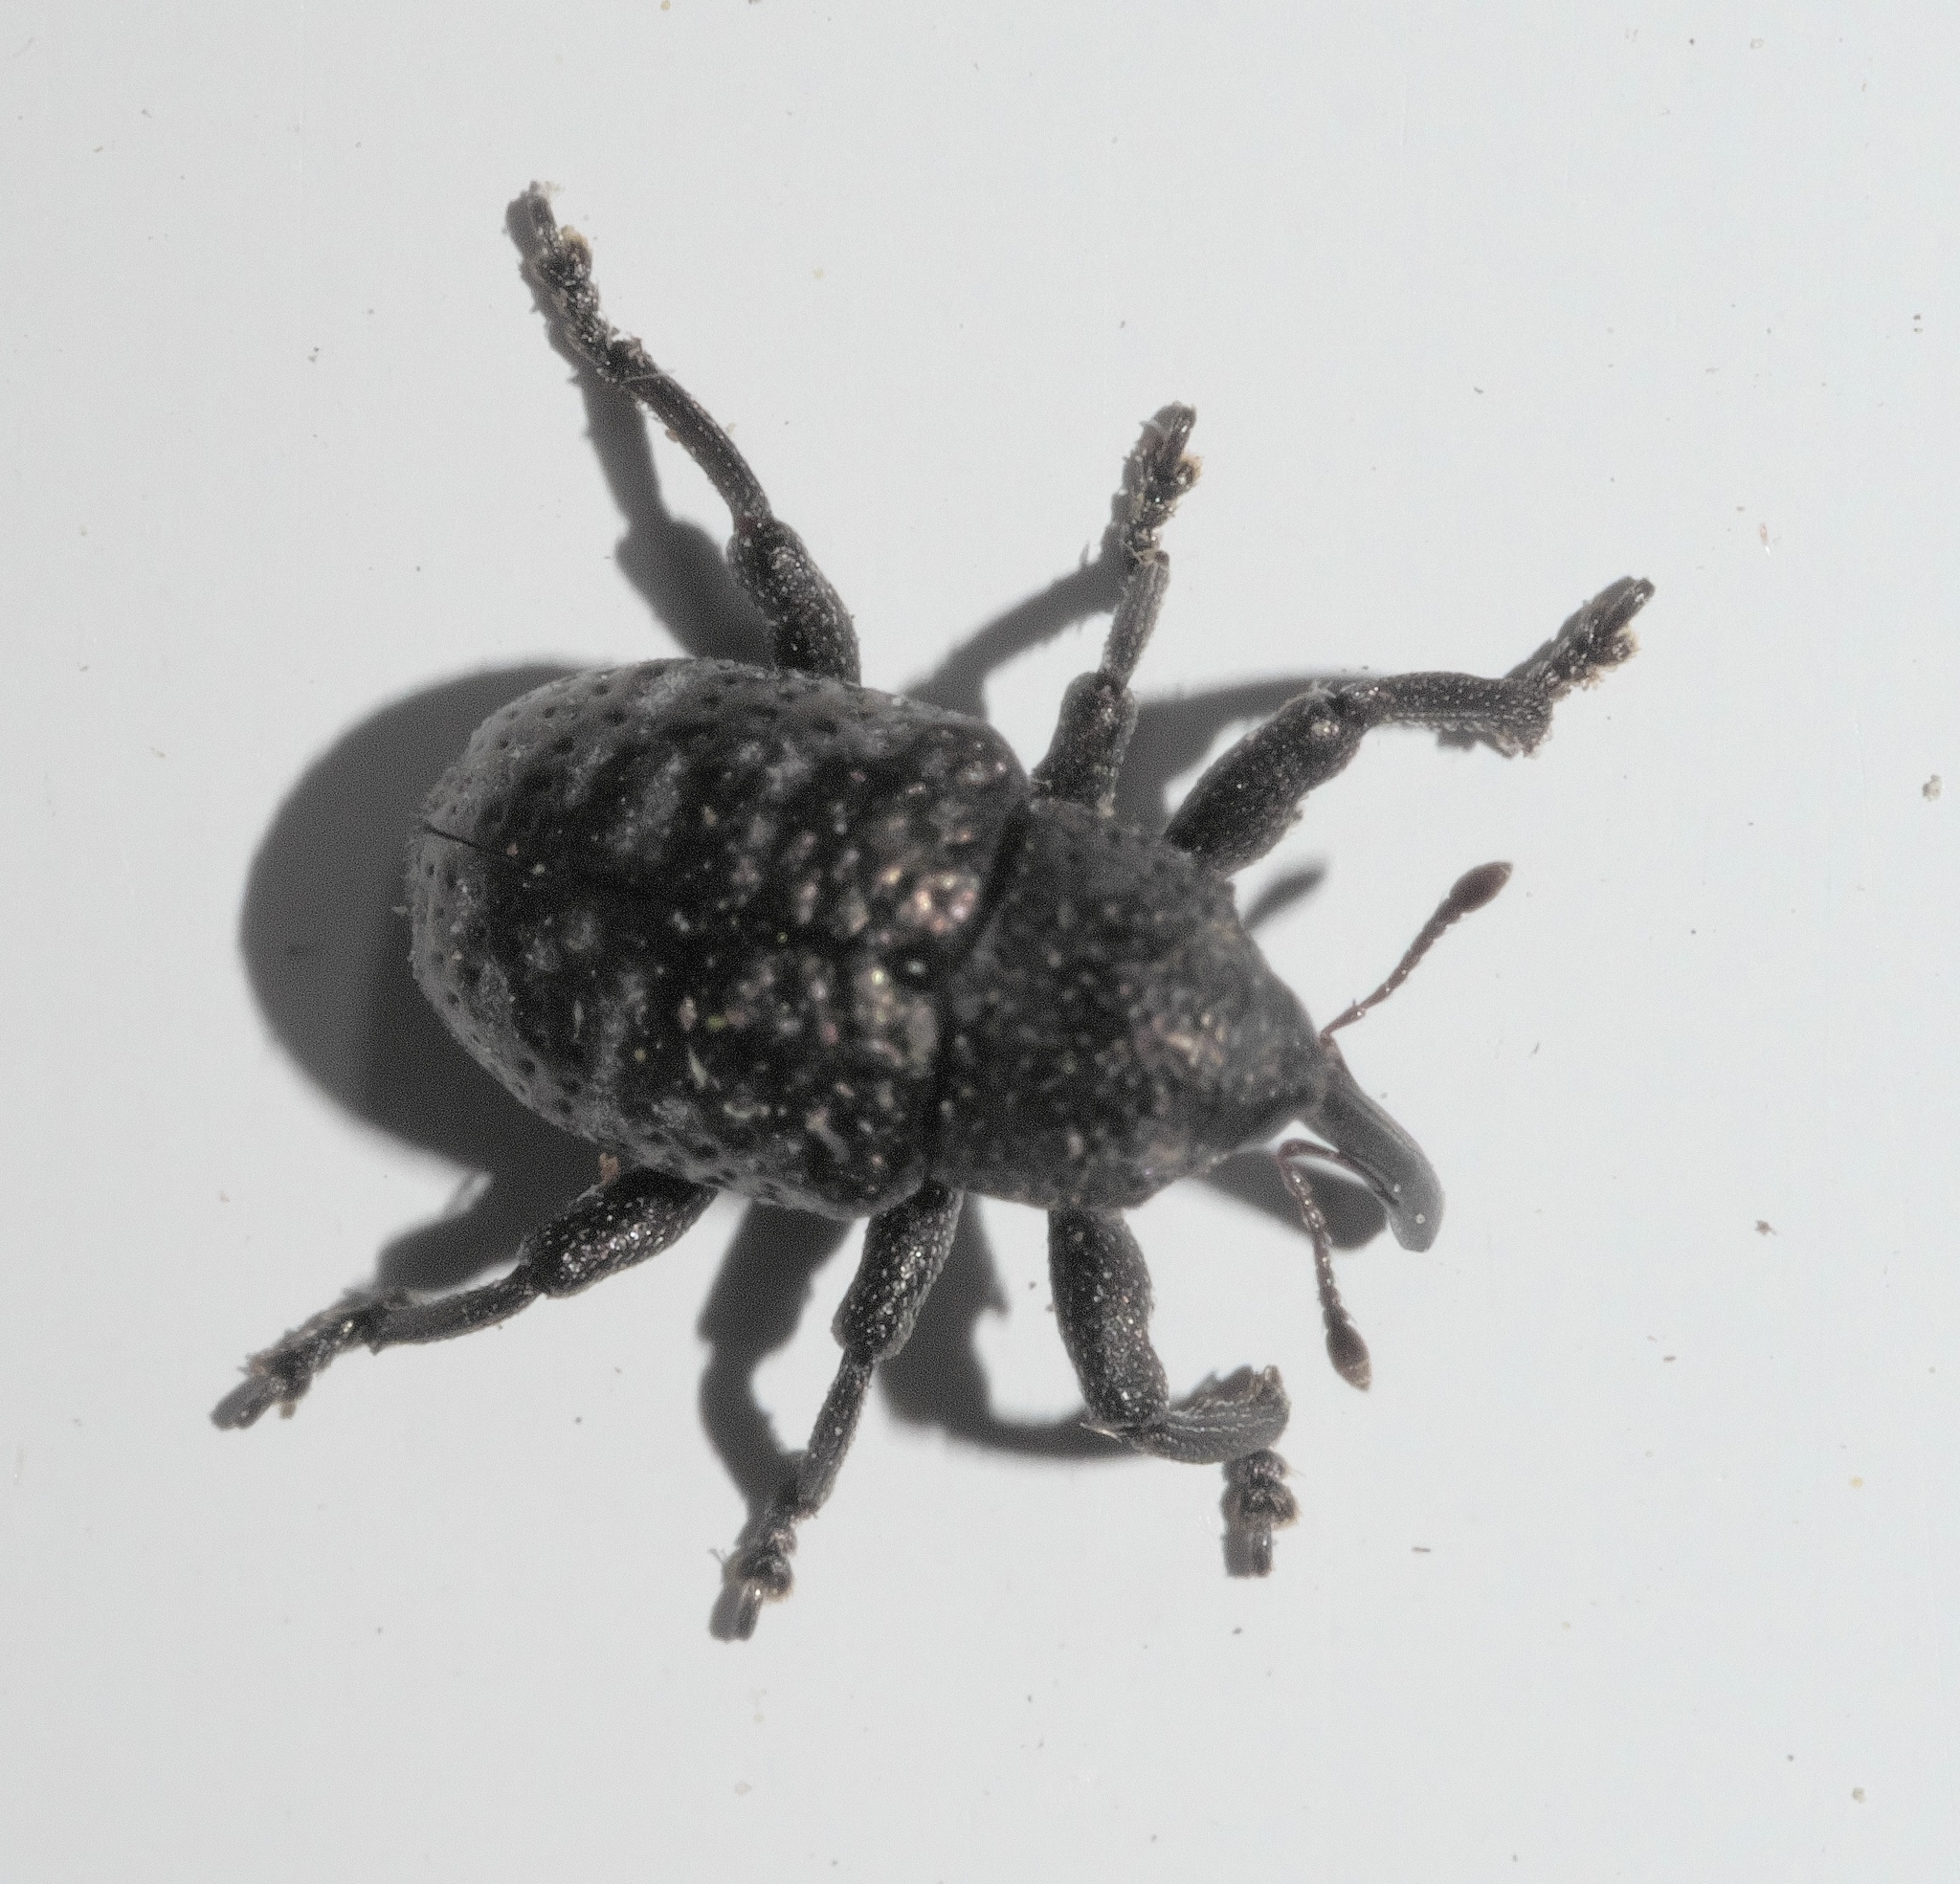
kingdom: Animalia
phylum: Arthropoda
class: Insecta
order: Coleoptera
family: Curculionidae
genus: Chalcodermus
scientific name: Chalcodermus aeneus
